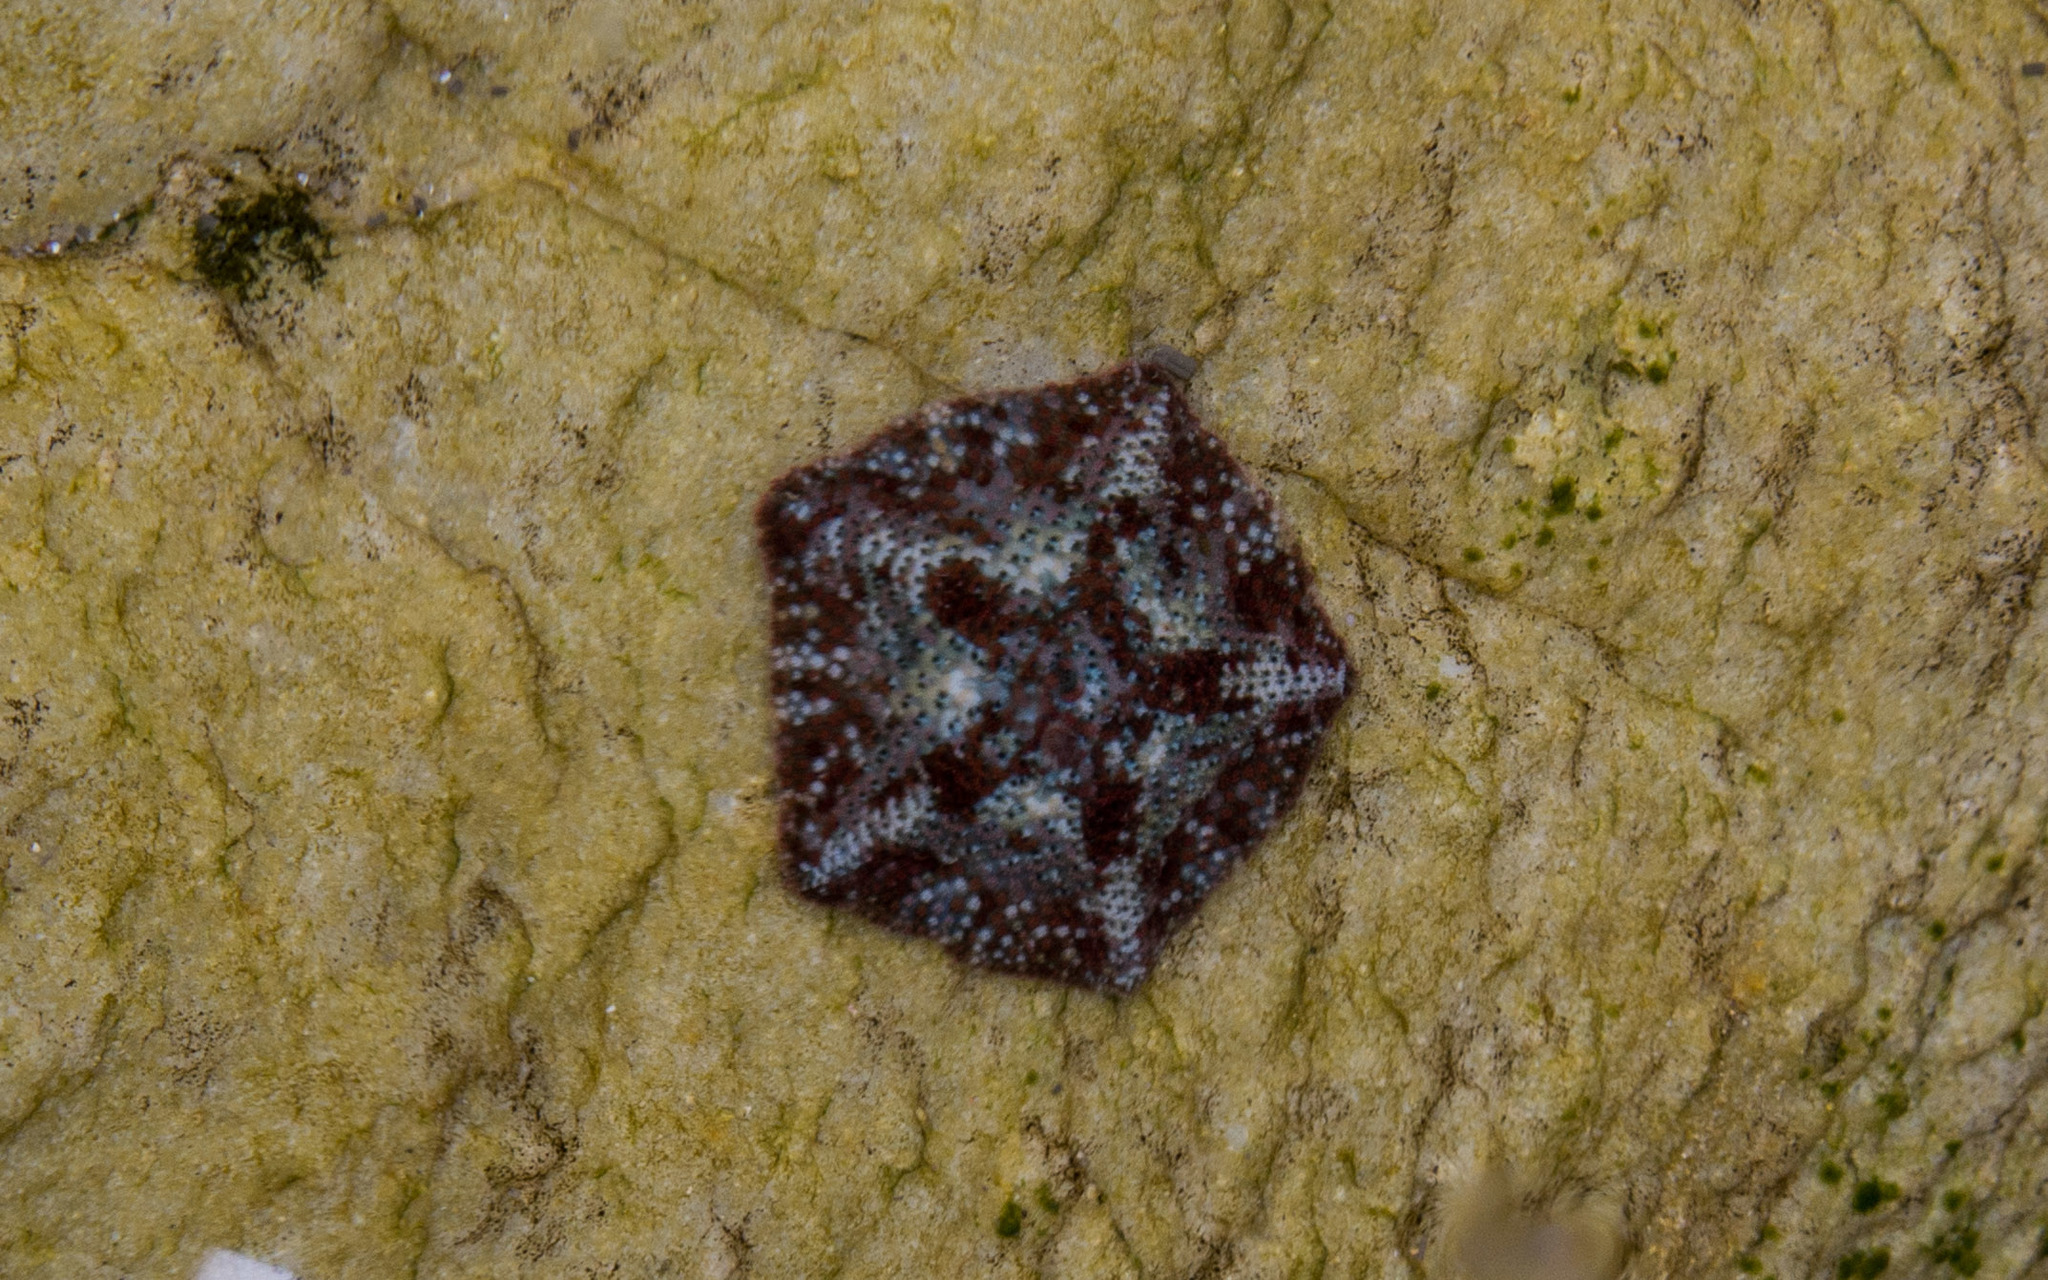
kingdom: Animalia
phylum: Echinodermata
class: Asteroidea
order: Valvatida
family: Asterinidae
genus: Parvulastra
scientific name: Parvulastra dyscrita
